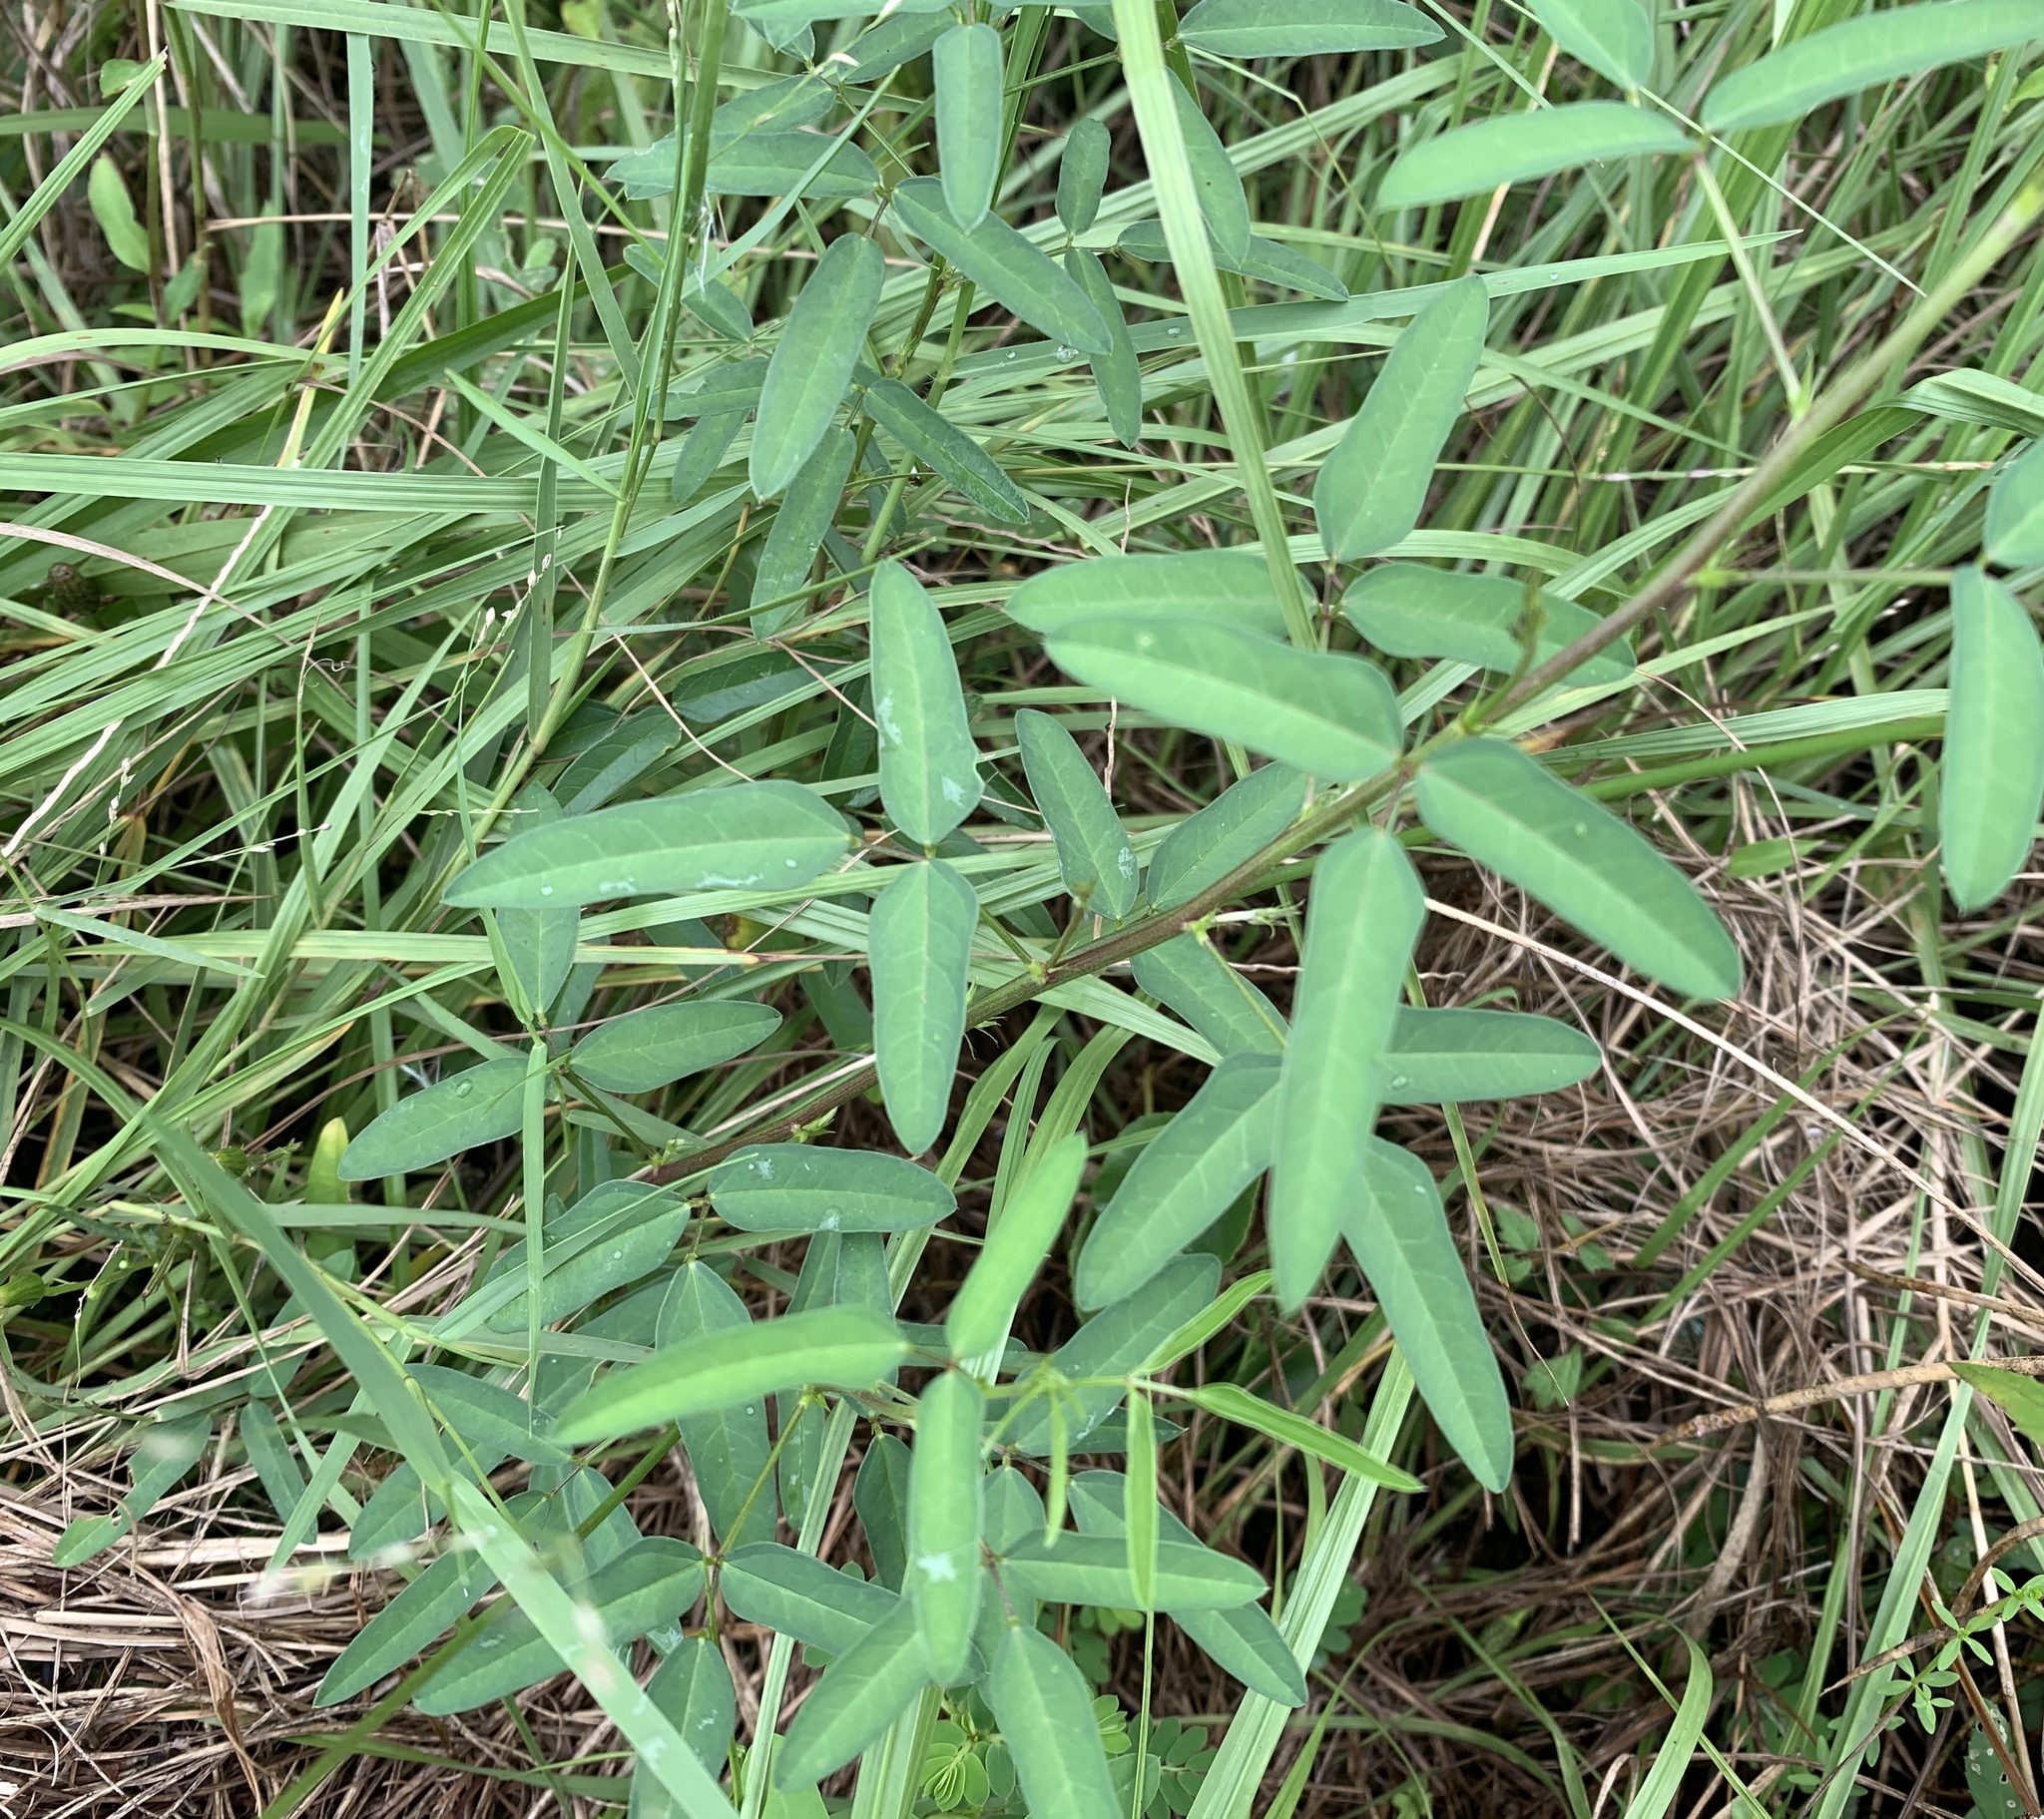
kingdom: Plantae
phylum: Tracheophyta
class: Magnoliopsida
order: Fabales
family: Fabaceae
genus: Macroptilium
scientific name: Macroptilium lathyroides
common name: Wild bushbean
